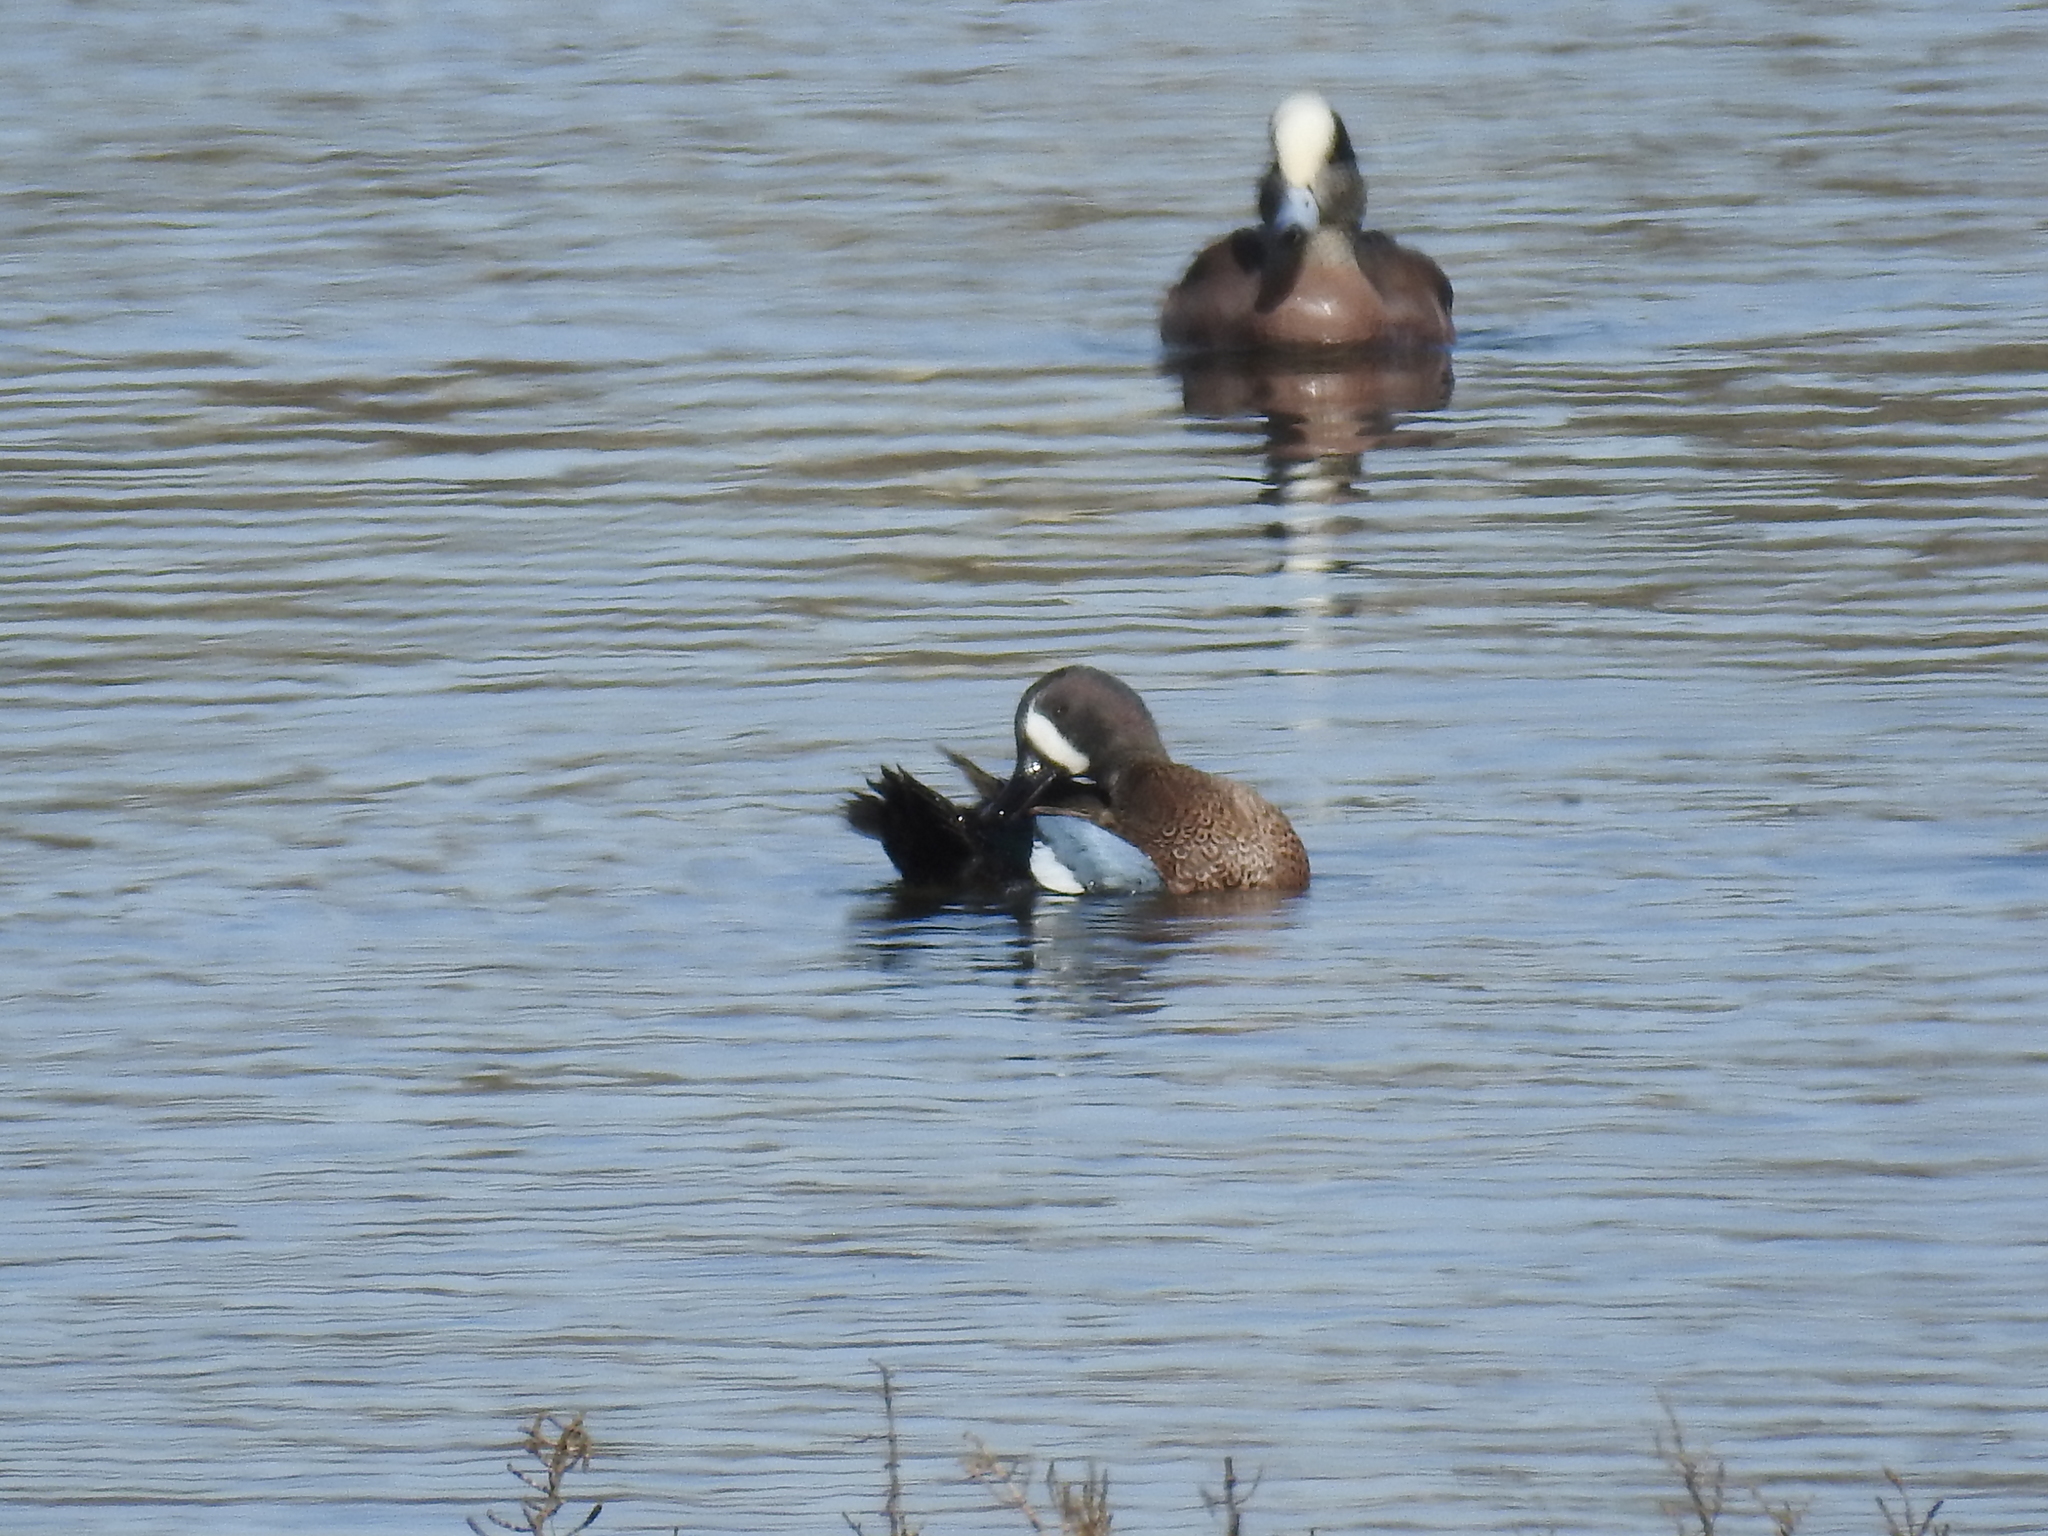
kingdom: Animalia
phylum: Chordata
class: Aves
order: Anseriformes
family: Anatidae
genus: Spatula
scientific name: Spatula discors
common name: Blue-winged teal
